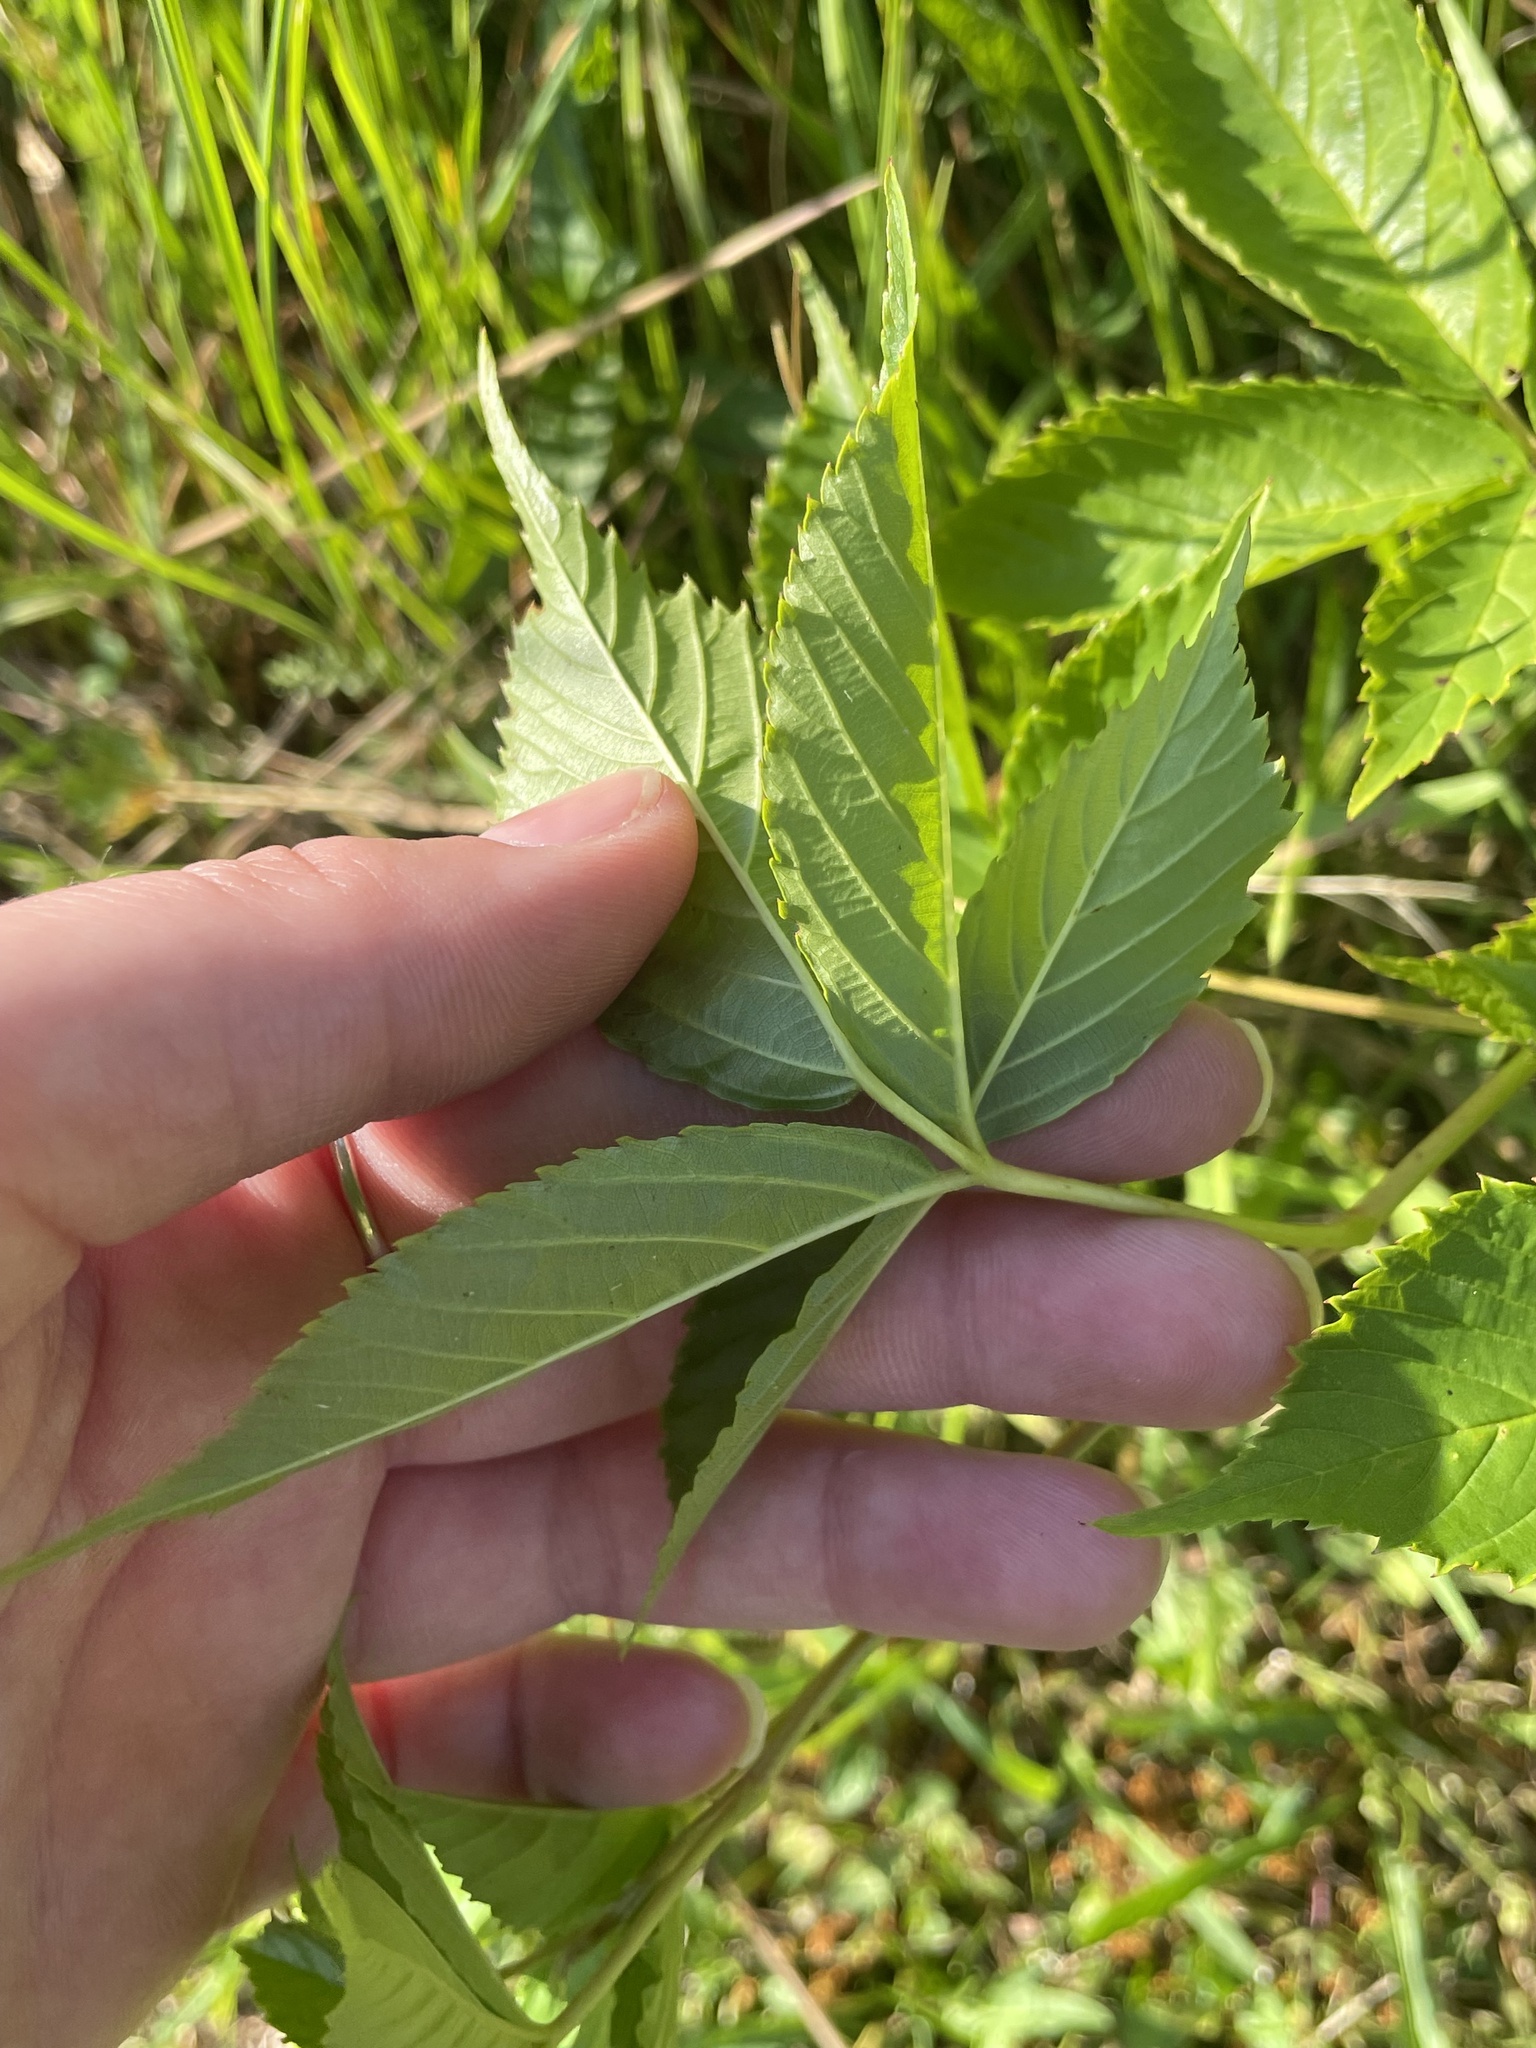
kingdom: Plantae
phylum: Tracheophyta
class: Magnoliopsida
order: Vitales
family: Vitaceae
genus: Parthenocissus
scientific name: Parthenocissus quinquefolia
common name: Virginia-creeper
